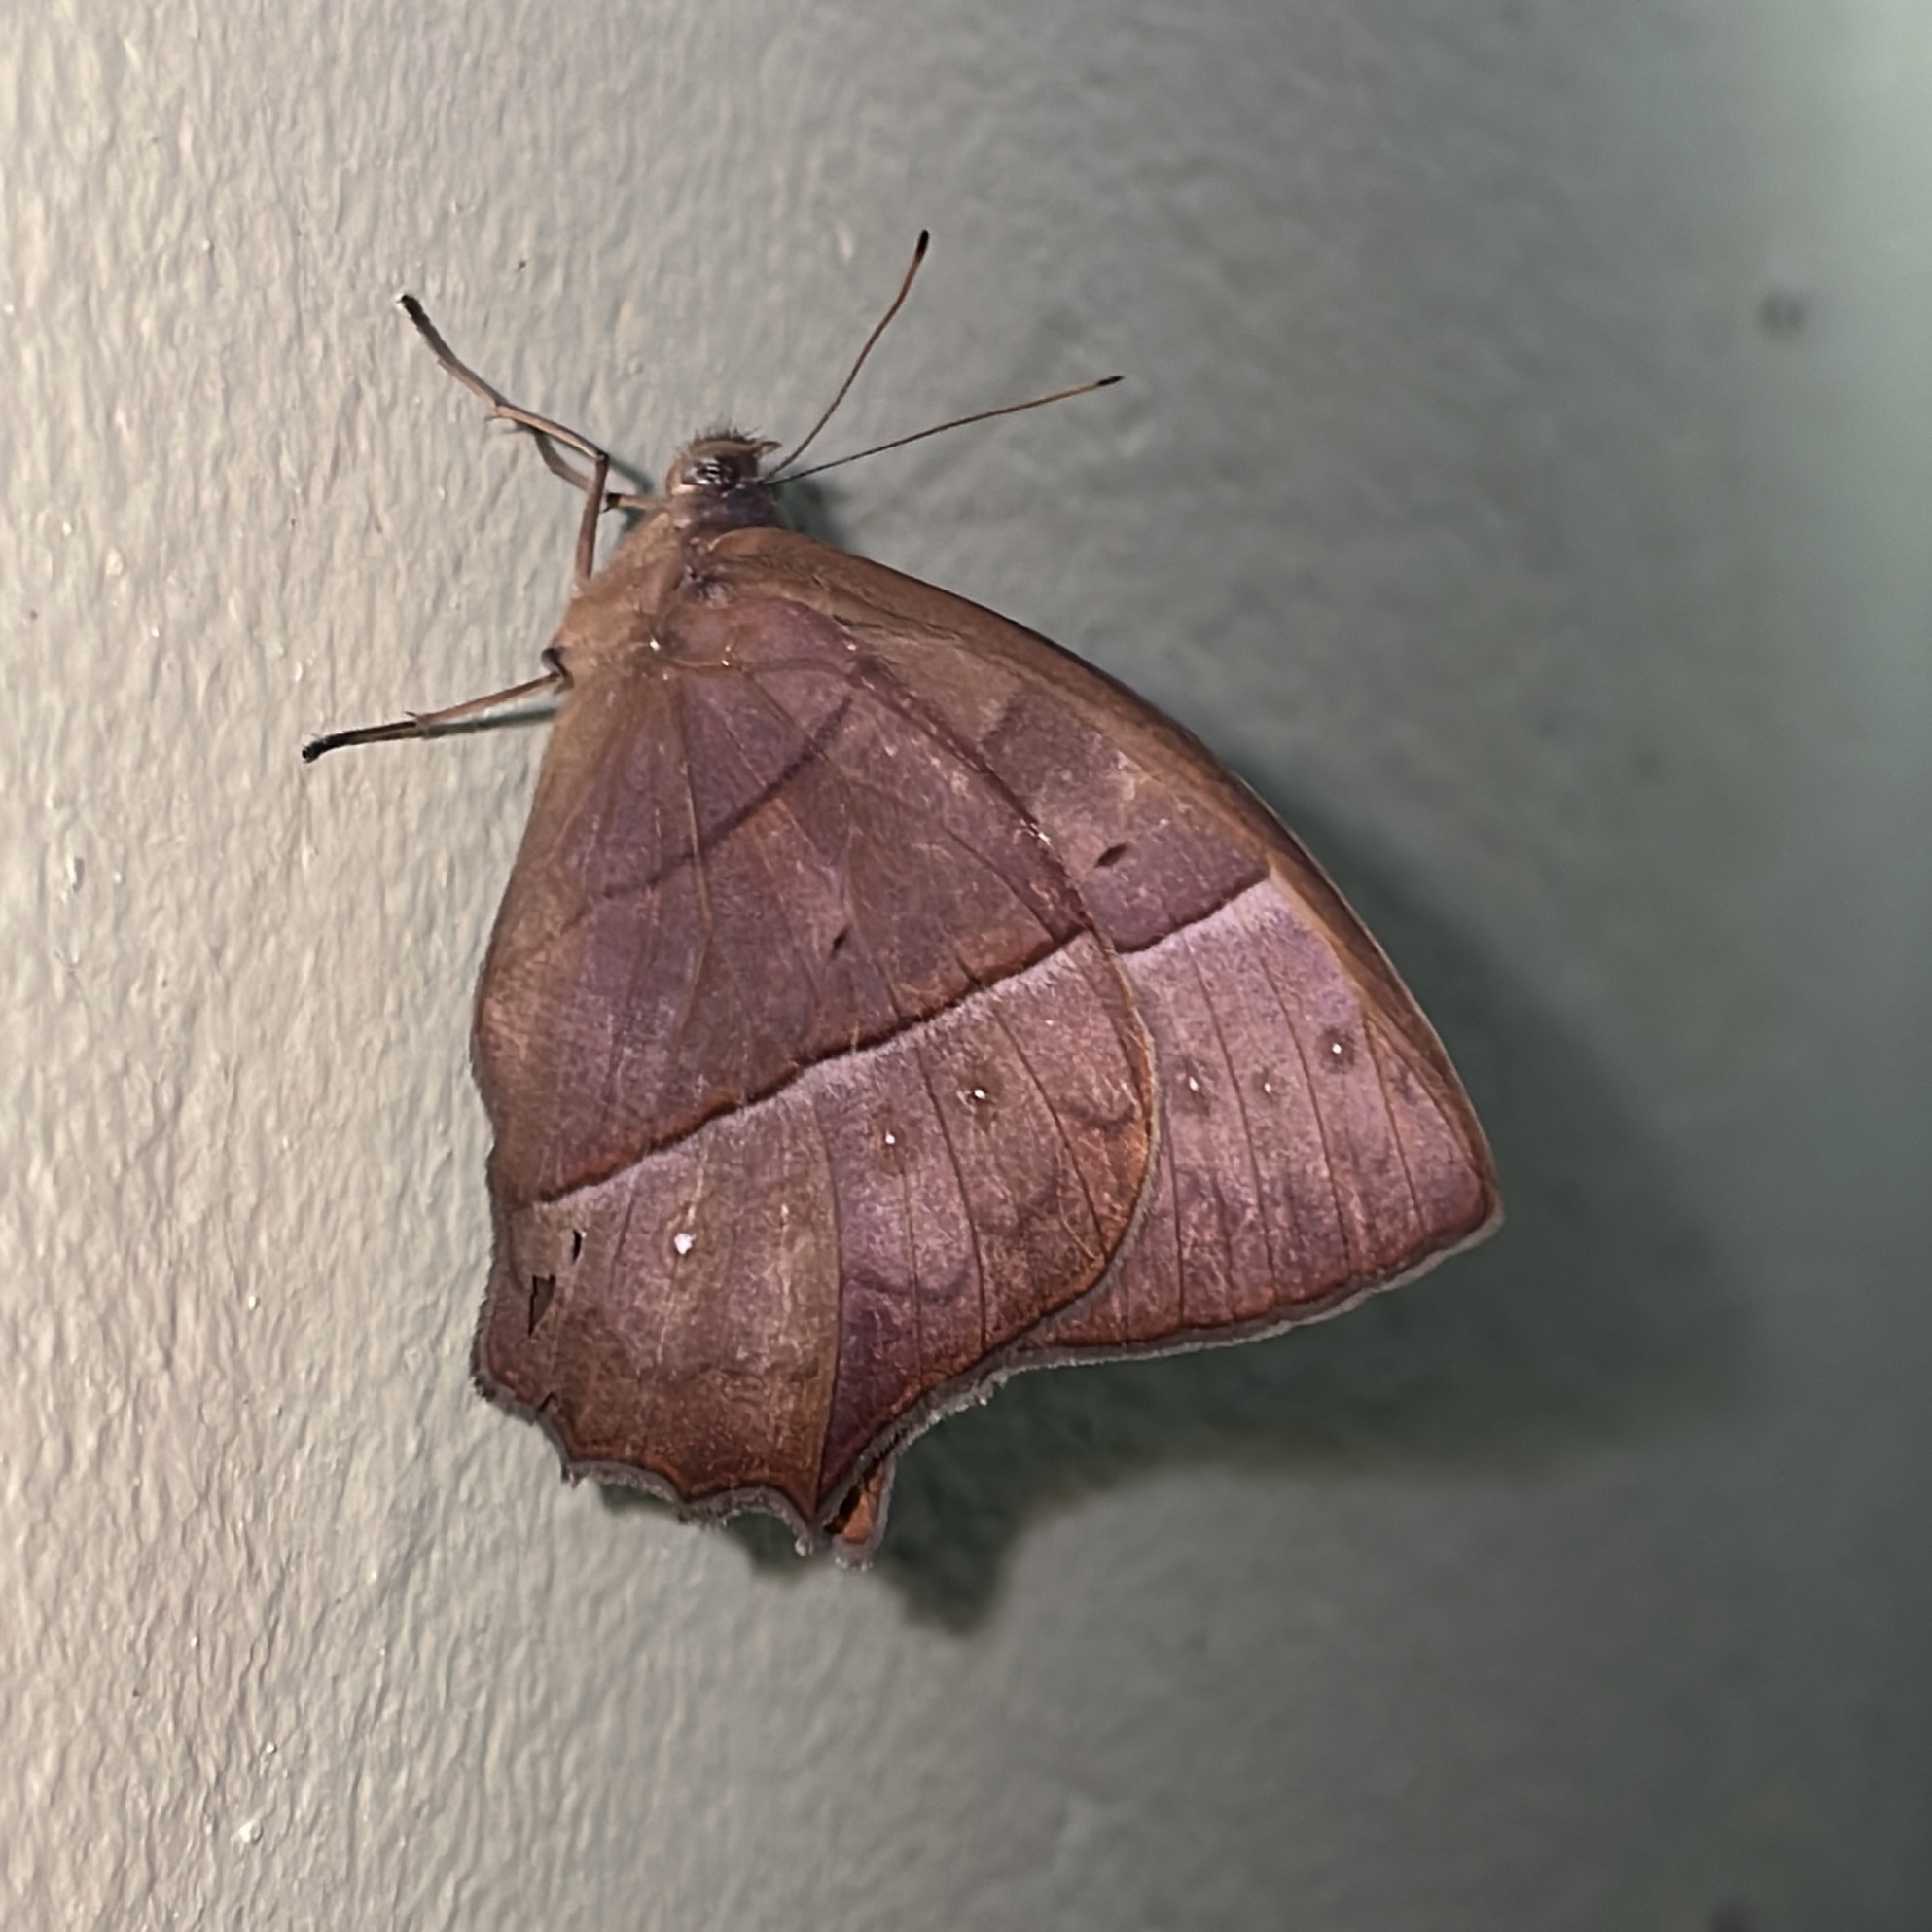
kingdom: Animalia
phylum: Arthropoda
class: Insecta
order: Lepidoptera
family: Nymphalidae
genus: Taygetis
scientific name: Taygetis virgilia
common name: Stub-tailed satyr
